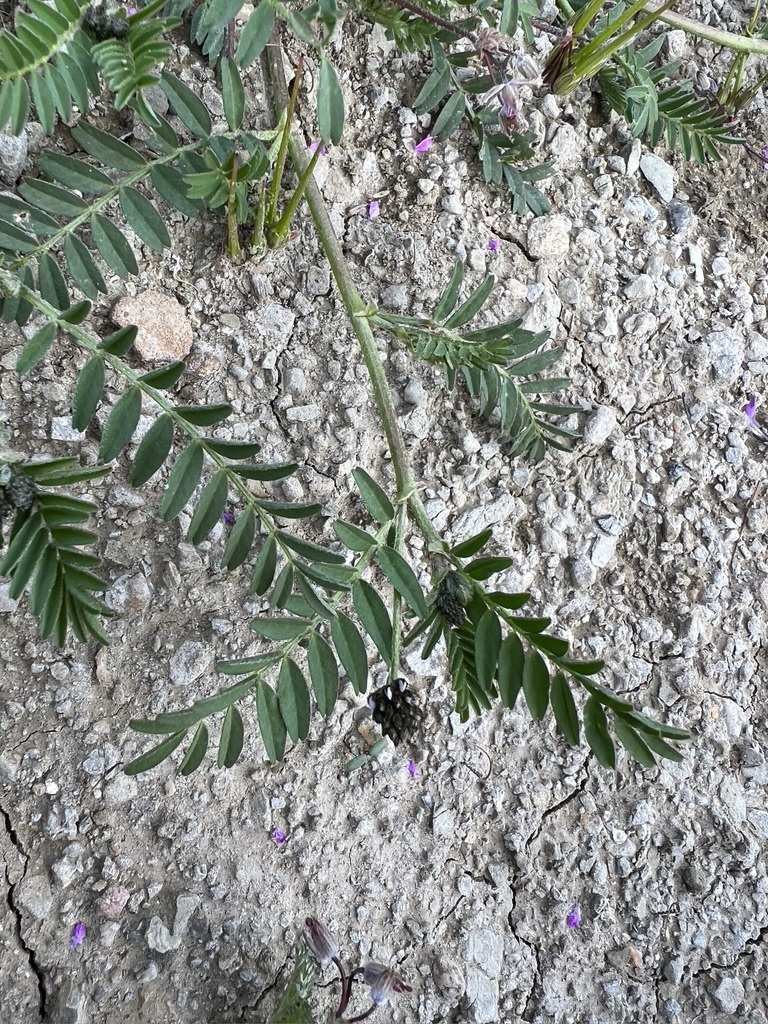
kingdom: Plantae
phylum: Tracheophyta
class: Magnoliopsida
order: Fabales
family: Fabaceae
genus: Astragalus
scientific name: Astragalus didymocarpus
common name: Dwarf white milkvetch
